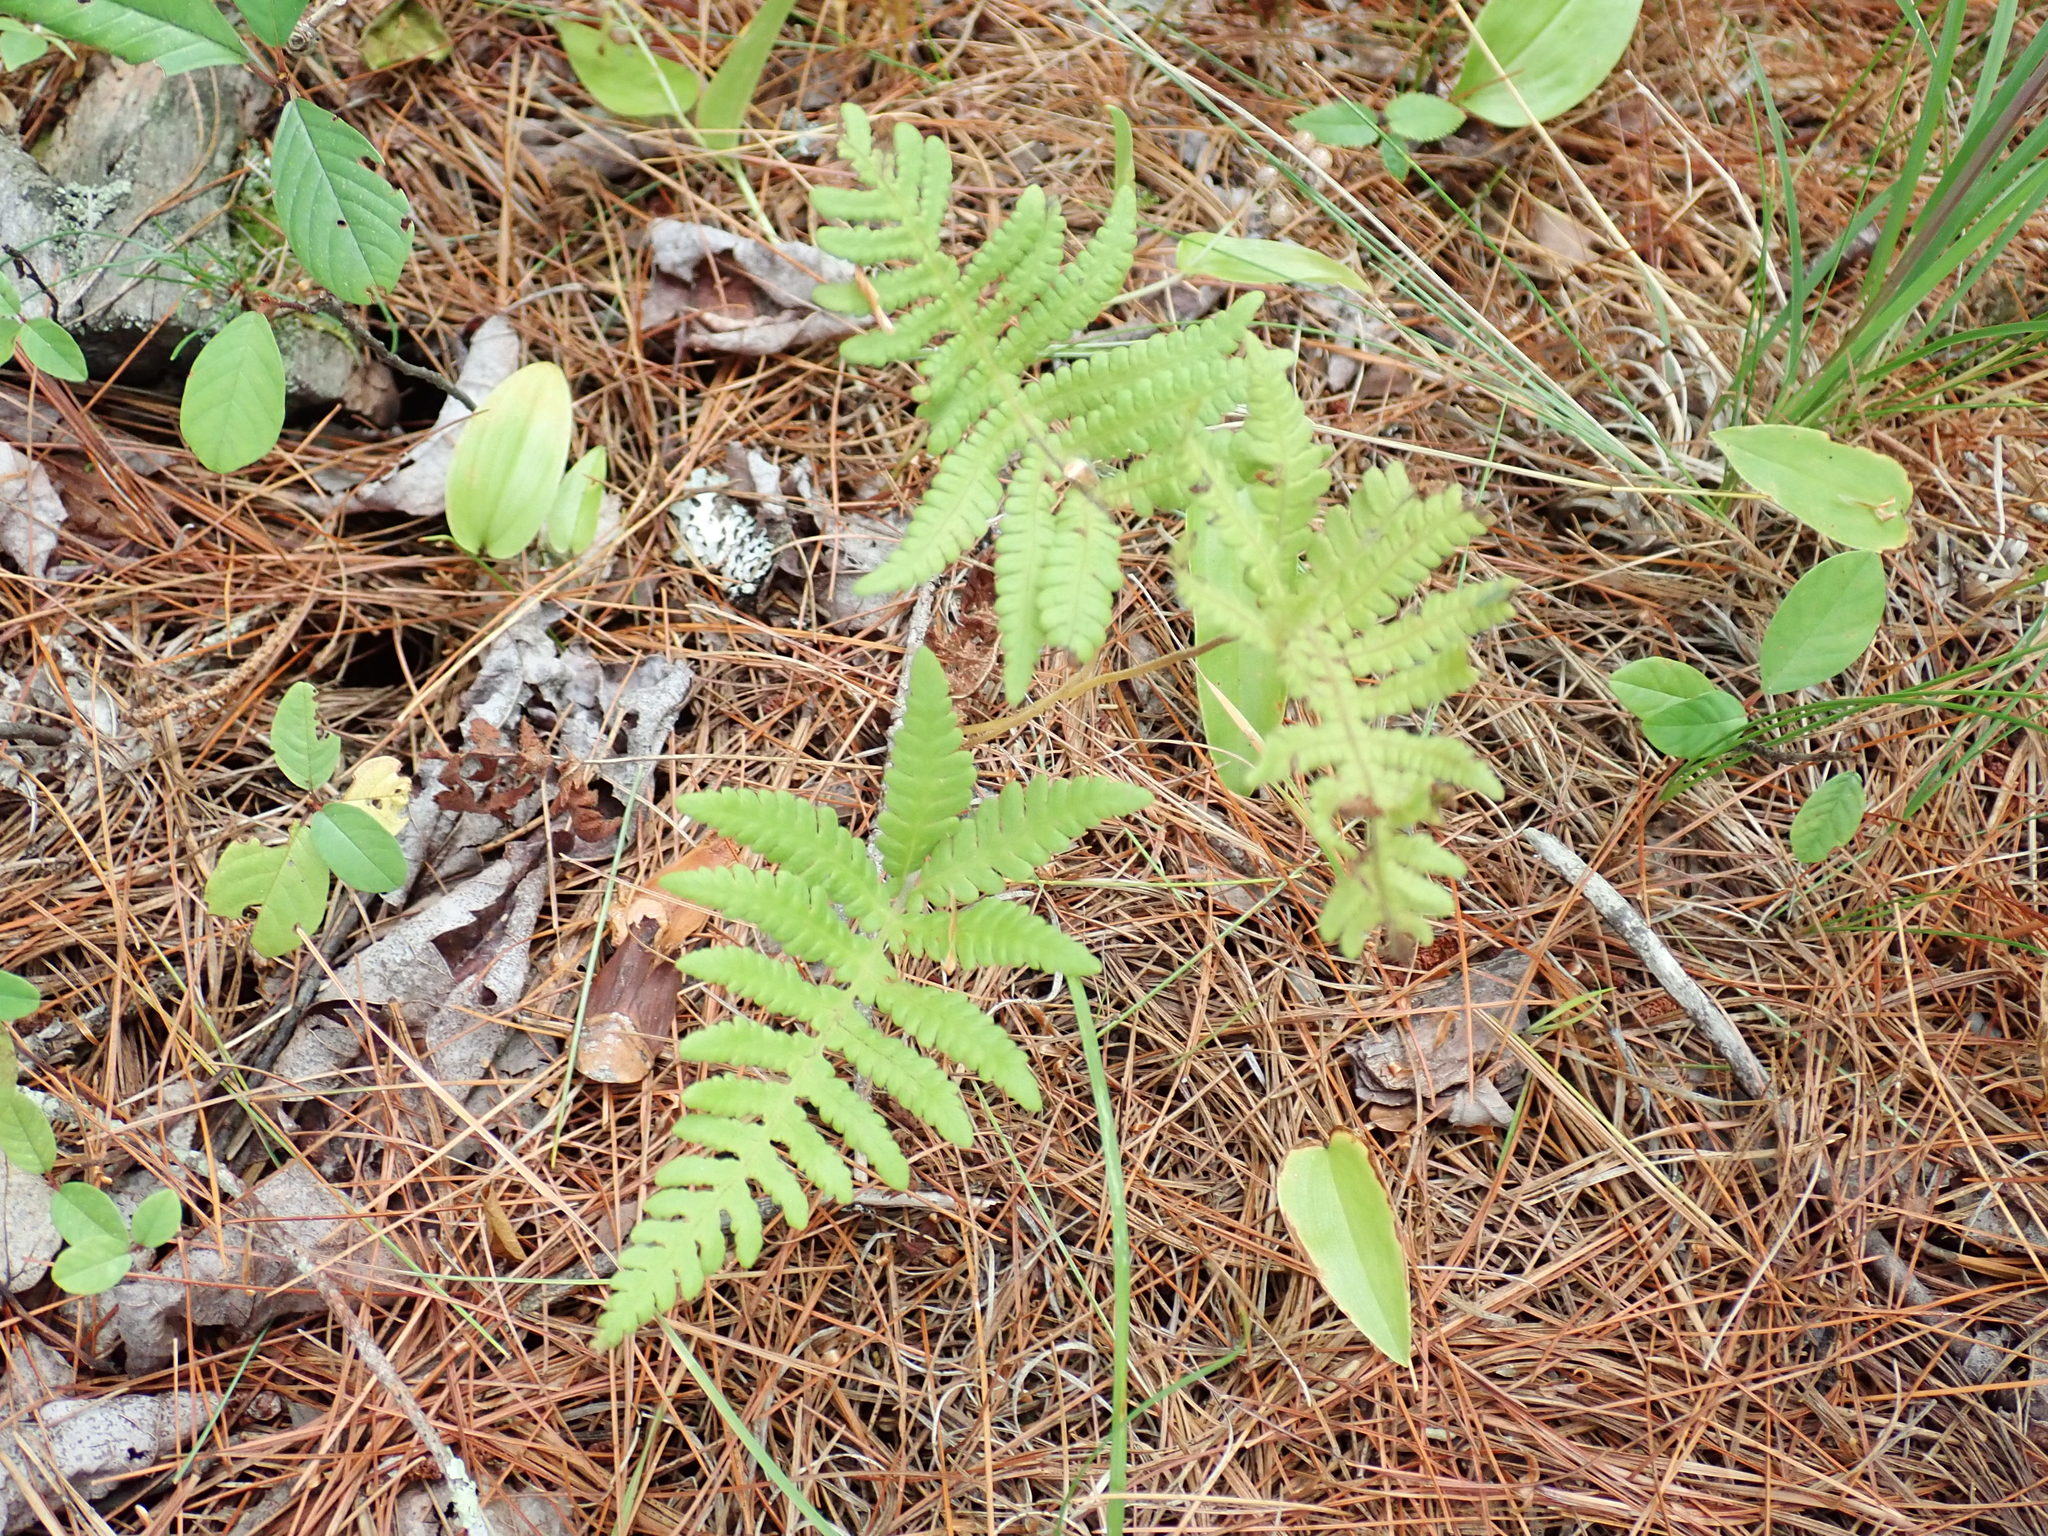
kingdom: Plantae
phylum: Tracheophyta
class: Polypodiopsida
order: Polypodiales
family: Thelypteridaceae
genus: Phegopteris
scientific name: Phegopteris connectilis
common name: Beech fern
